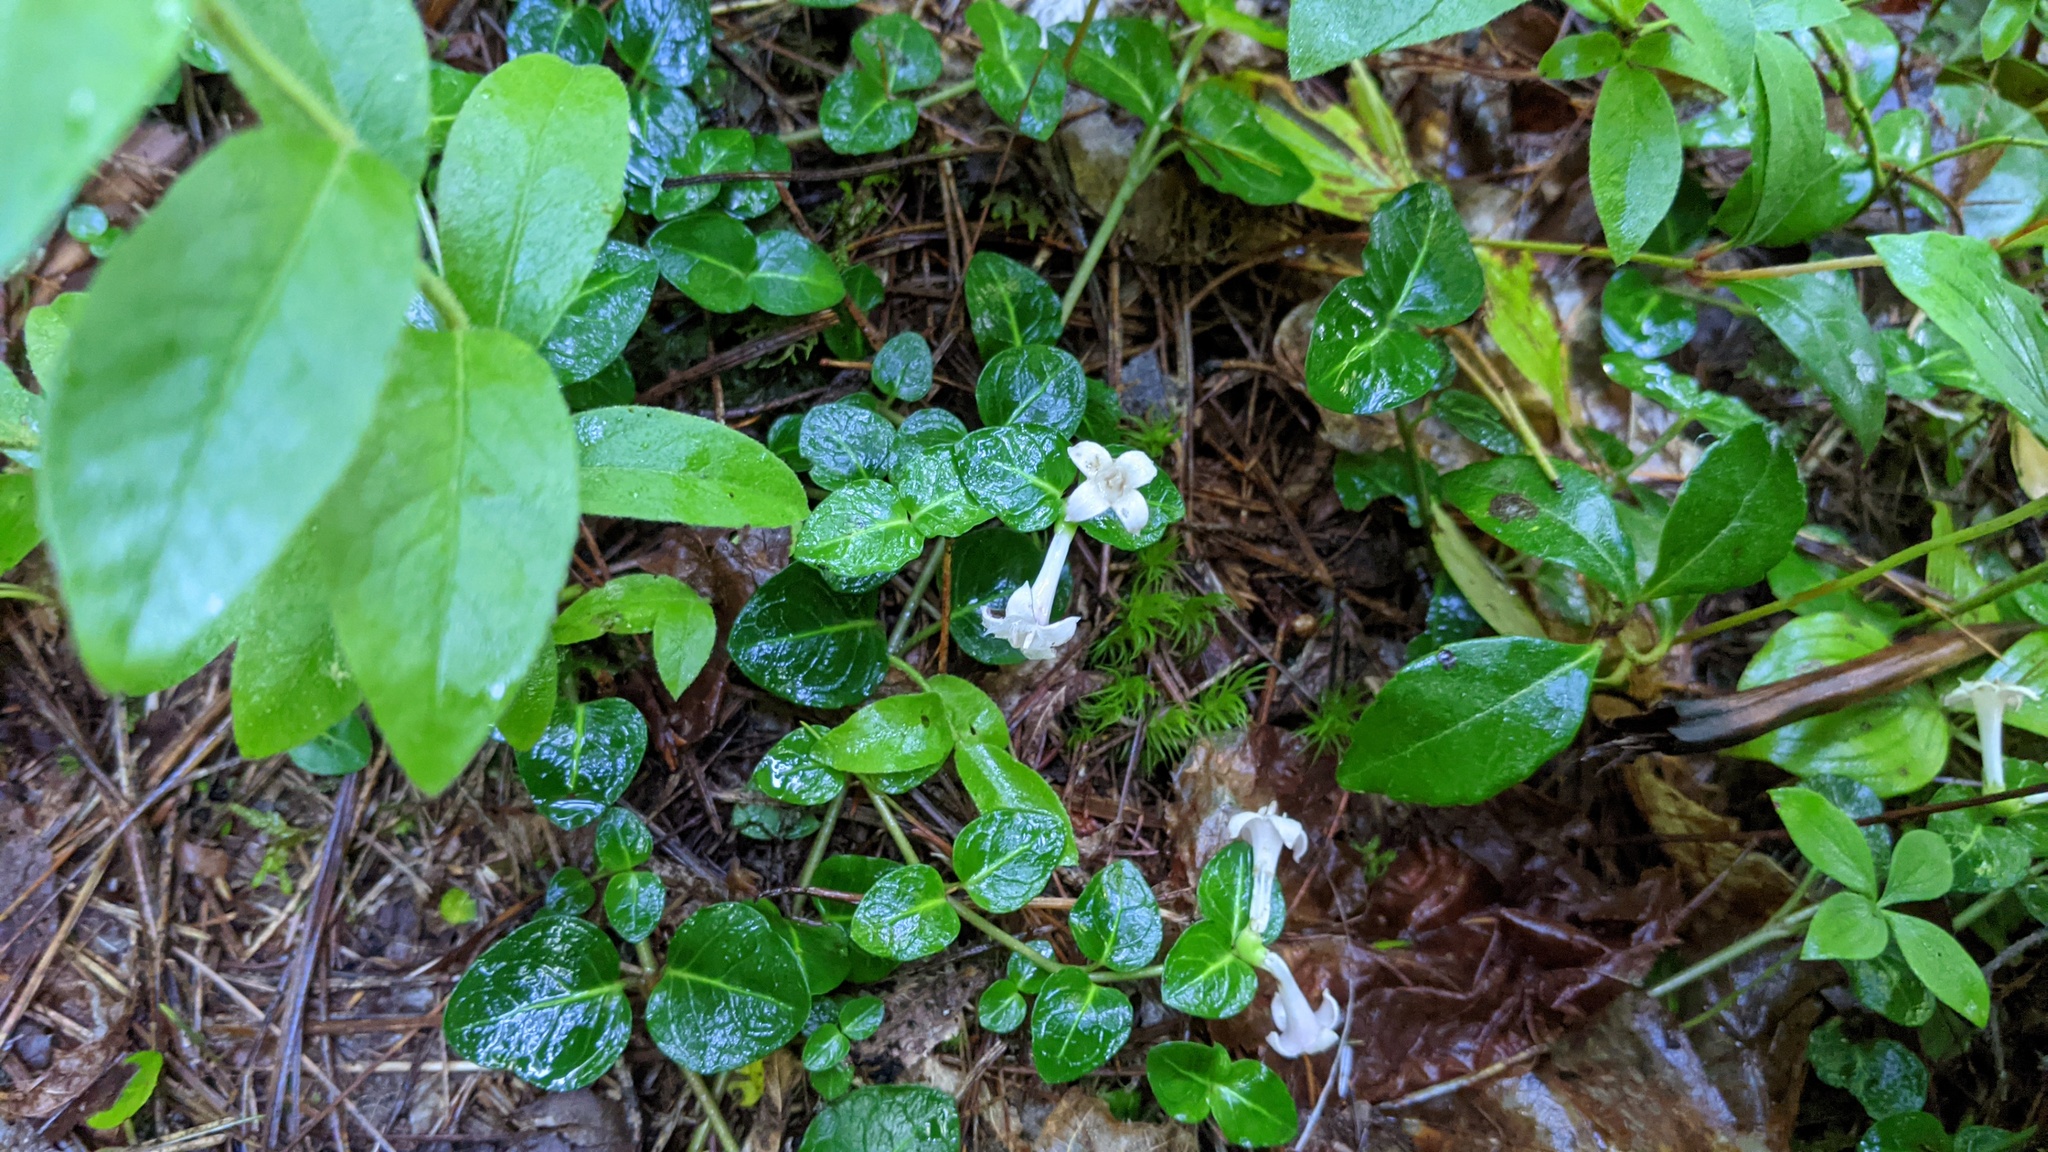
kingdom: Plantae
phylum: Tracheophyta
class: Magnoliopsida
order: Gentianales
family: Rubiaceae
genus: Mitchella
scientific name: Mitchella repens
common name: Partridge-berry
